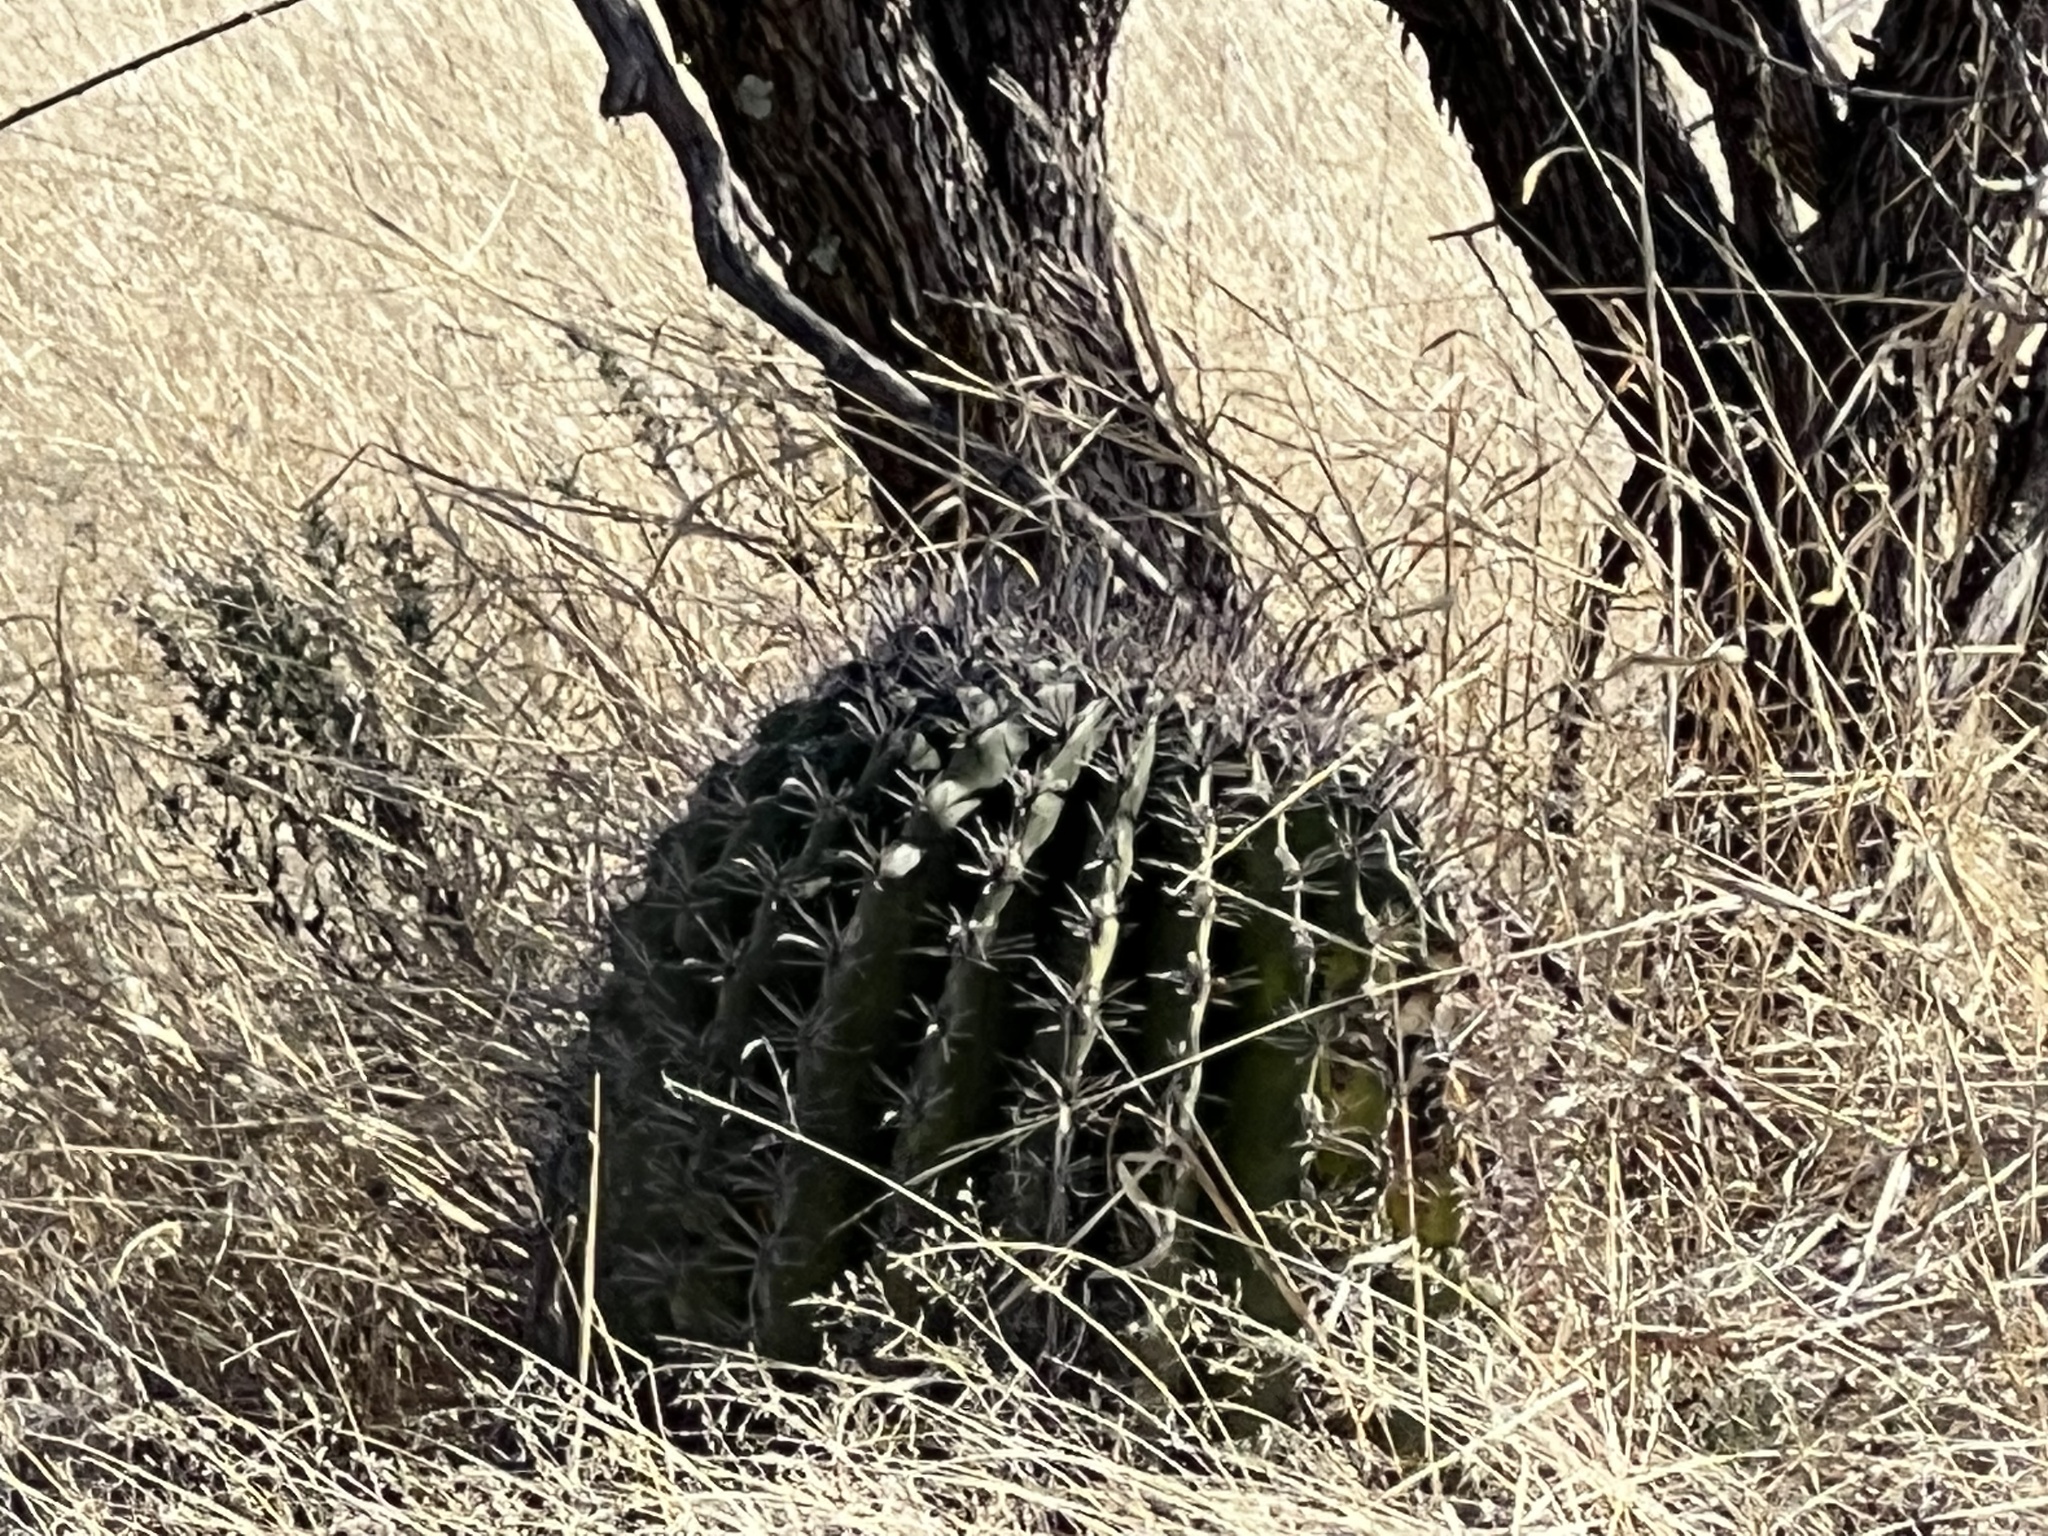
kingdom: Plantae
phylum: Tracheophyta
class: Magnoliopsida
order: Caryophyllales
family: Cactaceae
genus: Ferocactus
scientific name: Ferocactus wislizeni
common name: Candy barrel cactus
